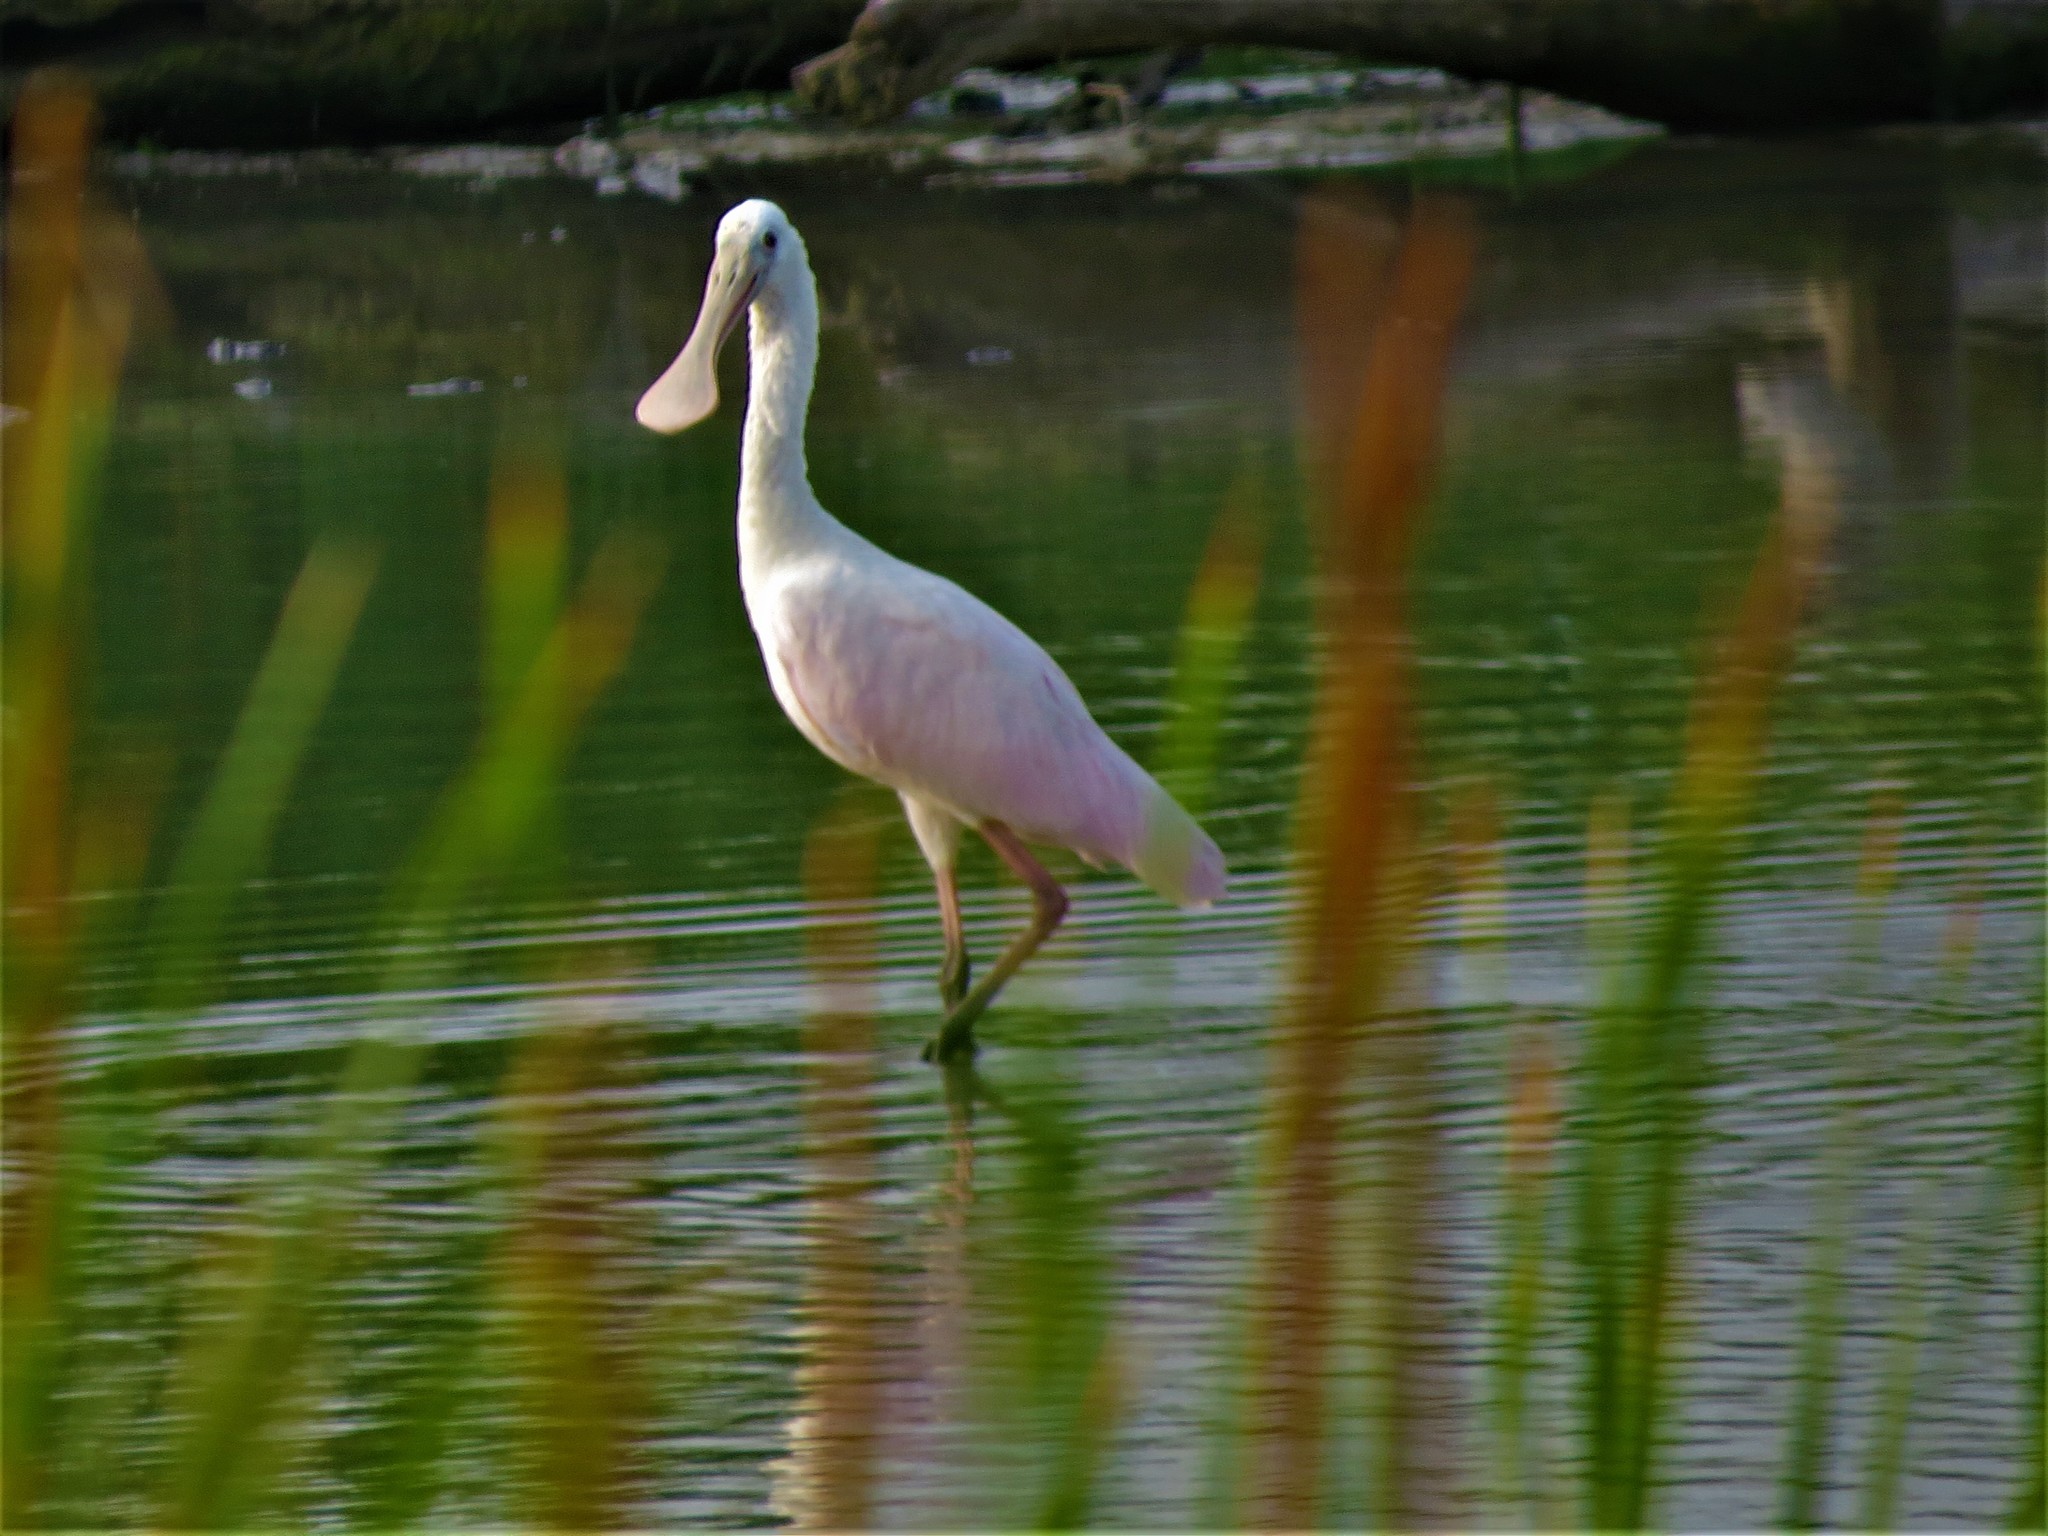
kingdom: Animalia
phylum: Chordata
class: Aves
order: Pelecaniformes
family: Threskiornithidae
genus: Platalea
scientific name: Platalea ajaja
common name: Roseate spoonbill
